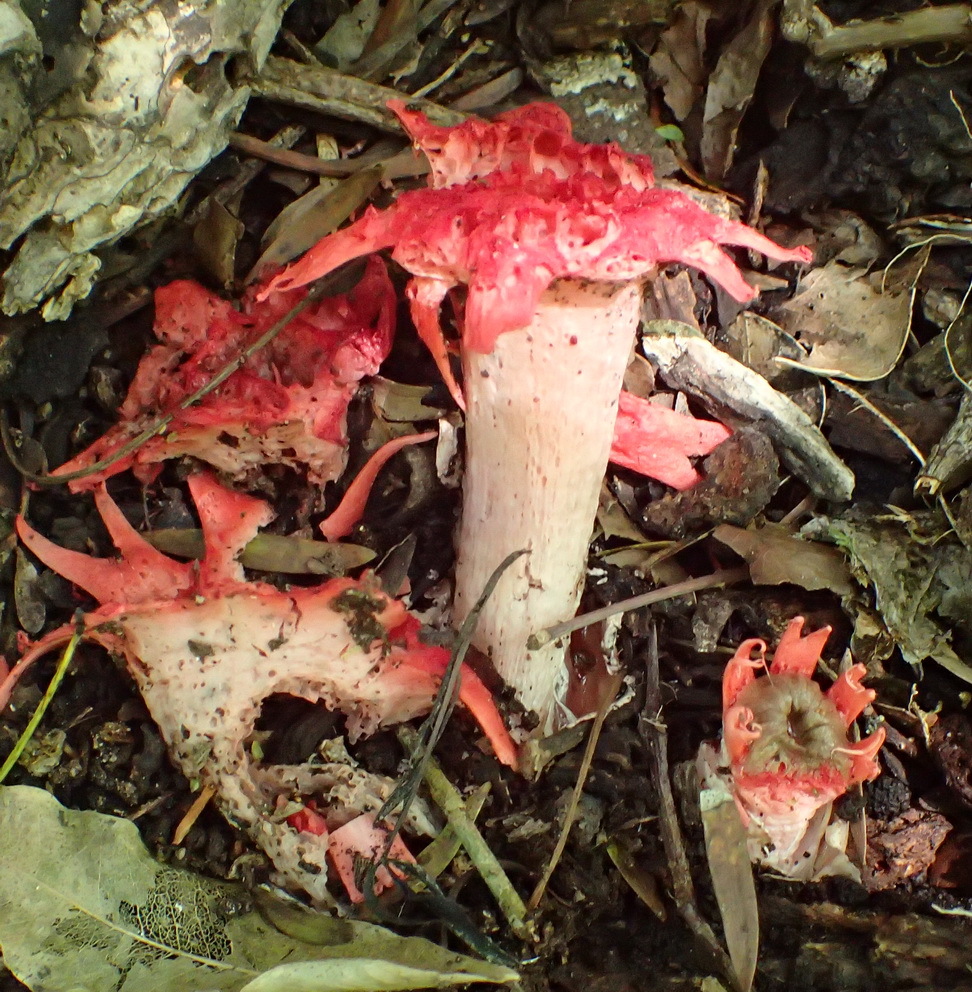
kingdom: Fungi
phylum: Basidiomycota
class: Agaricomycetes
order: Phallales
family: Phallaceae
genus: Aseroe
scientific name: Aseroe rubra
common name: Starfish fungus
